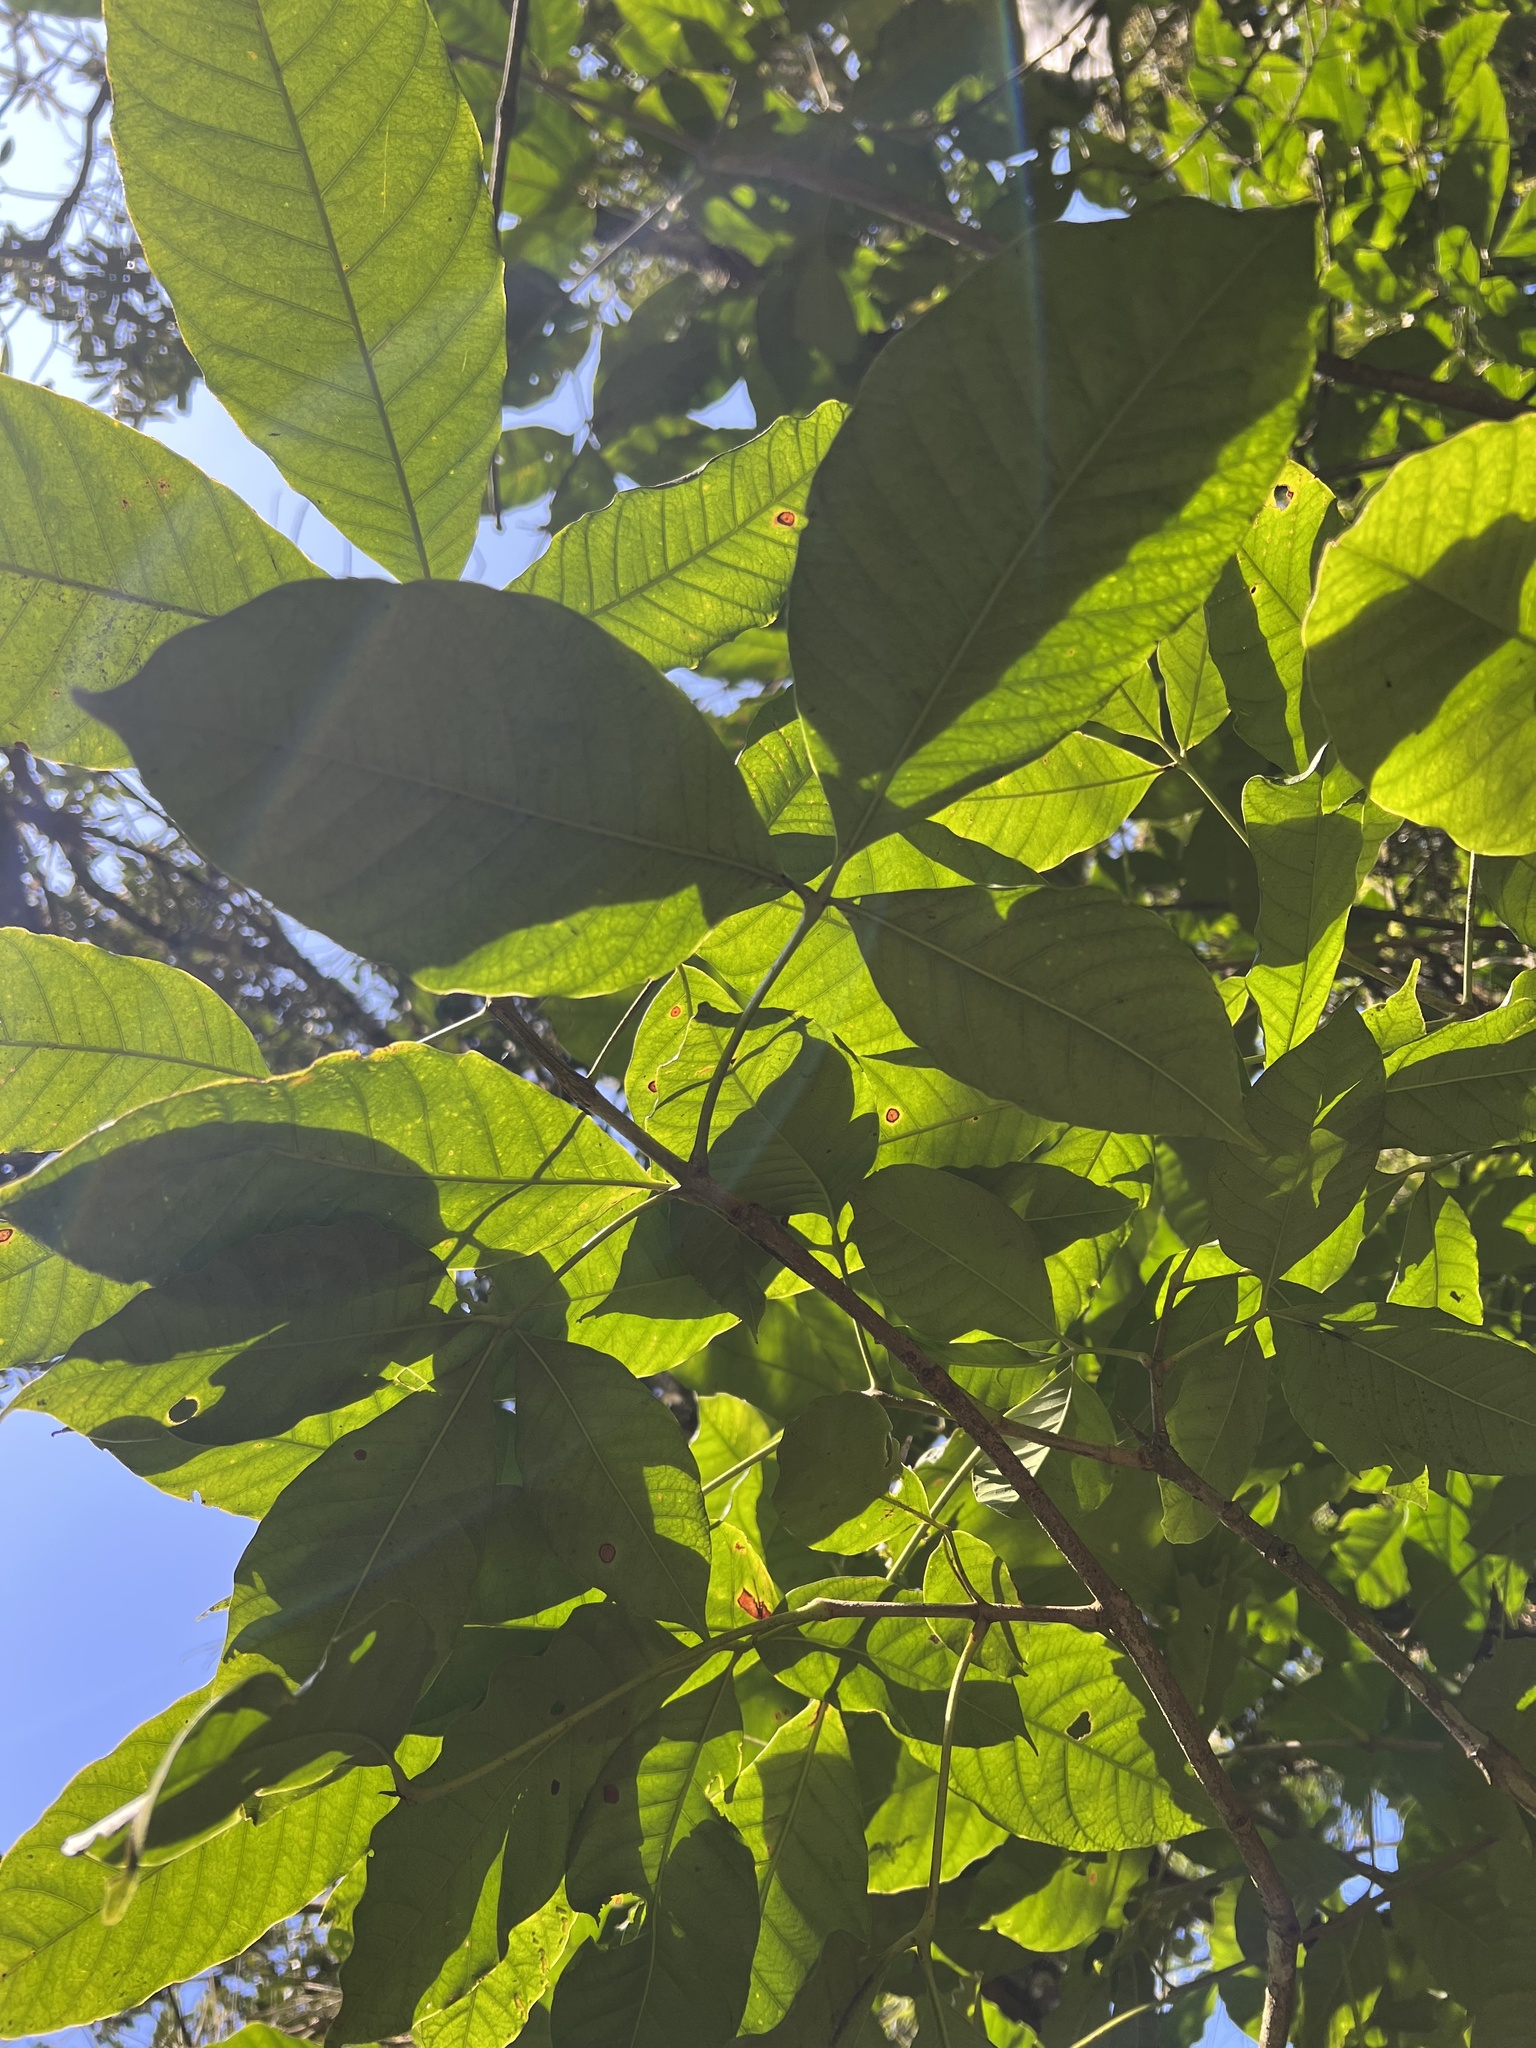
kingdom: Plantae
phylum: Tracheophyta
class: Magnoliopsida
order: Sapindales
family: Sapindaceae
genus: Billia
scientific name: Billia rosea
